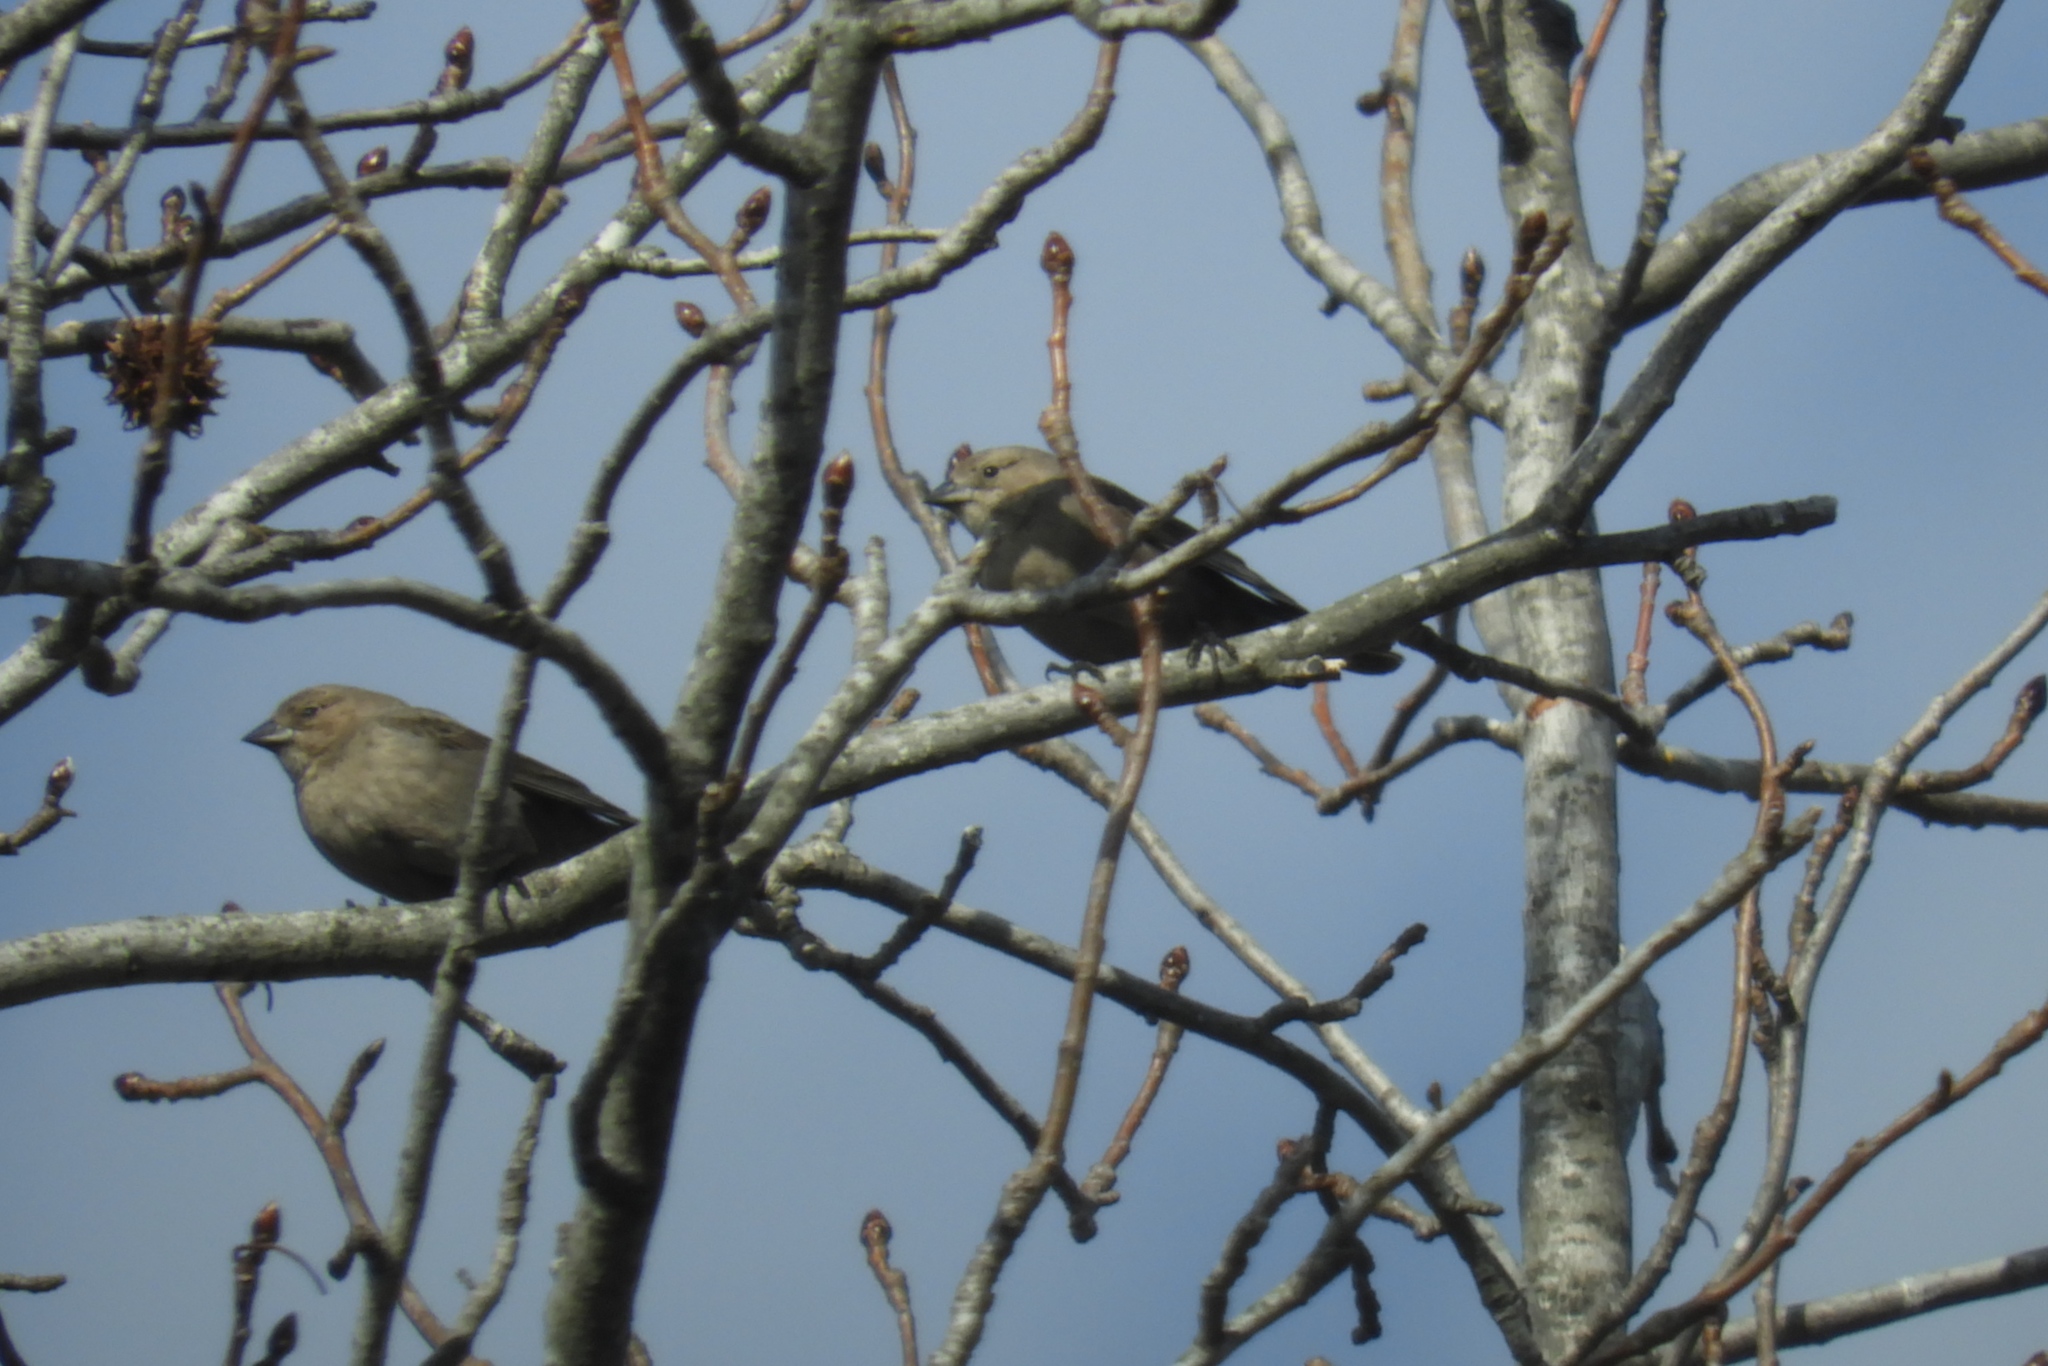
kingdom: Animalia
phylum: Chordata
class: Aves
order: Passeriformes
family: Icteridae
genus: Molothrus
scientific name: Molothrus ater
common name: Brown-headed cowbird
